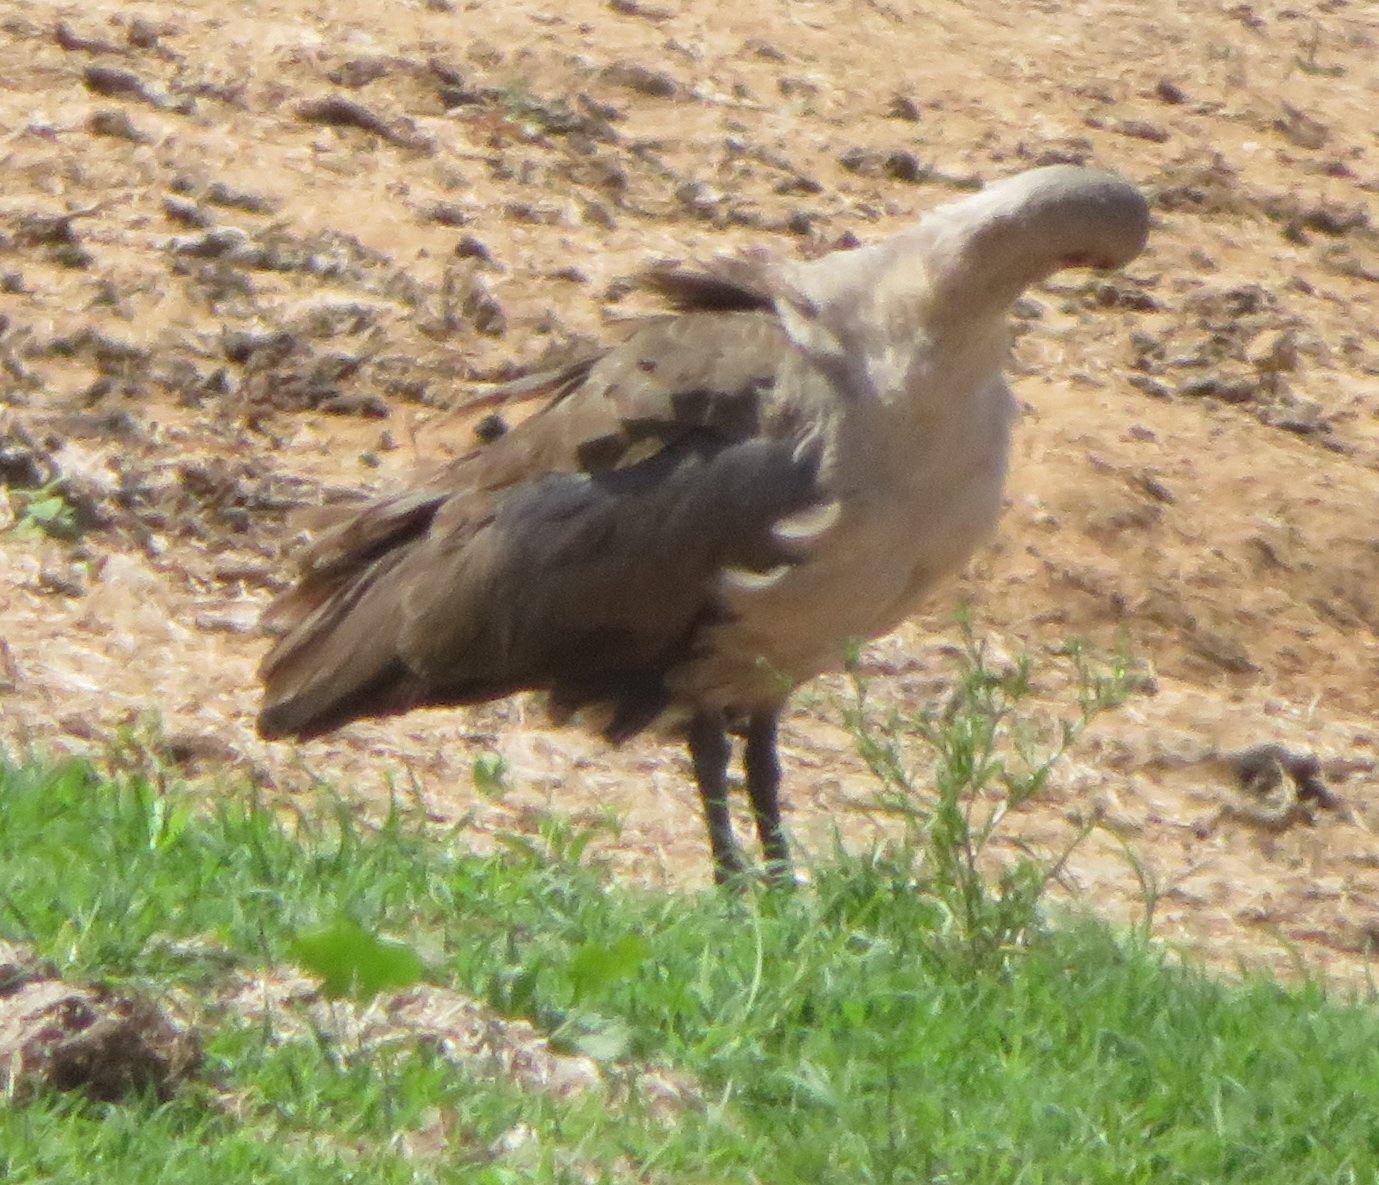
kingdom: Animalia
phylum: Chordata
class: Aves
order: Pelecaniformes
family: Threskiornithidae
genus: Bostrychia
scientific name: Bostrychia hagedash
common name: Hadada ibis
